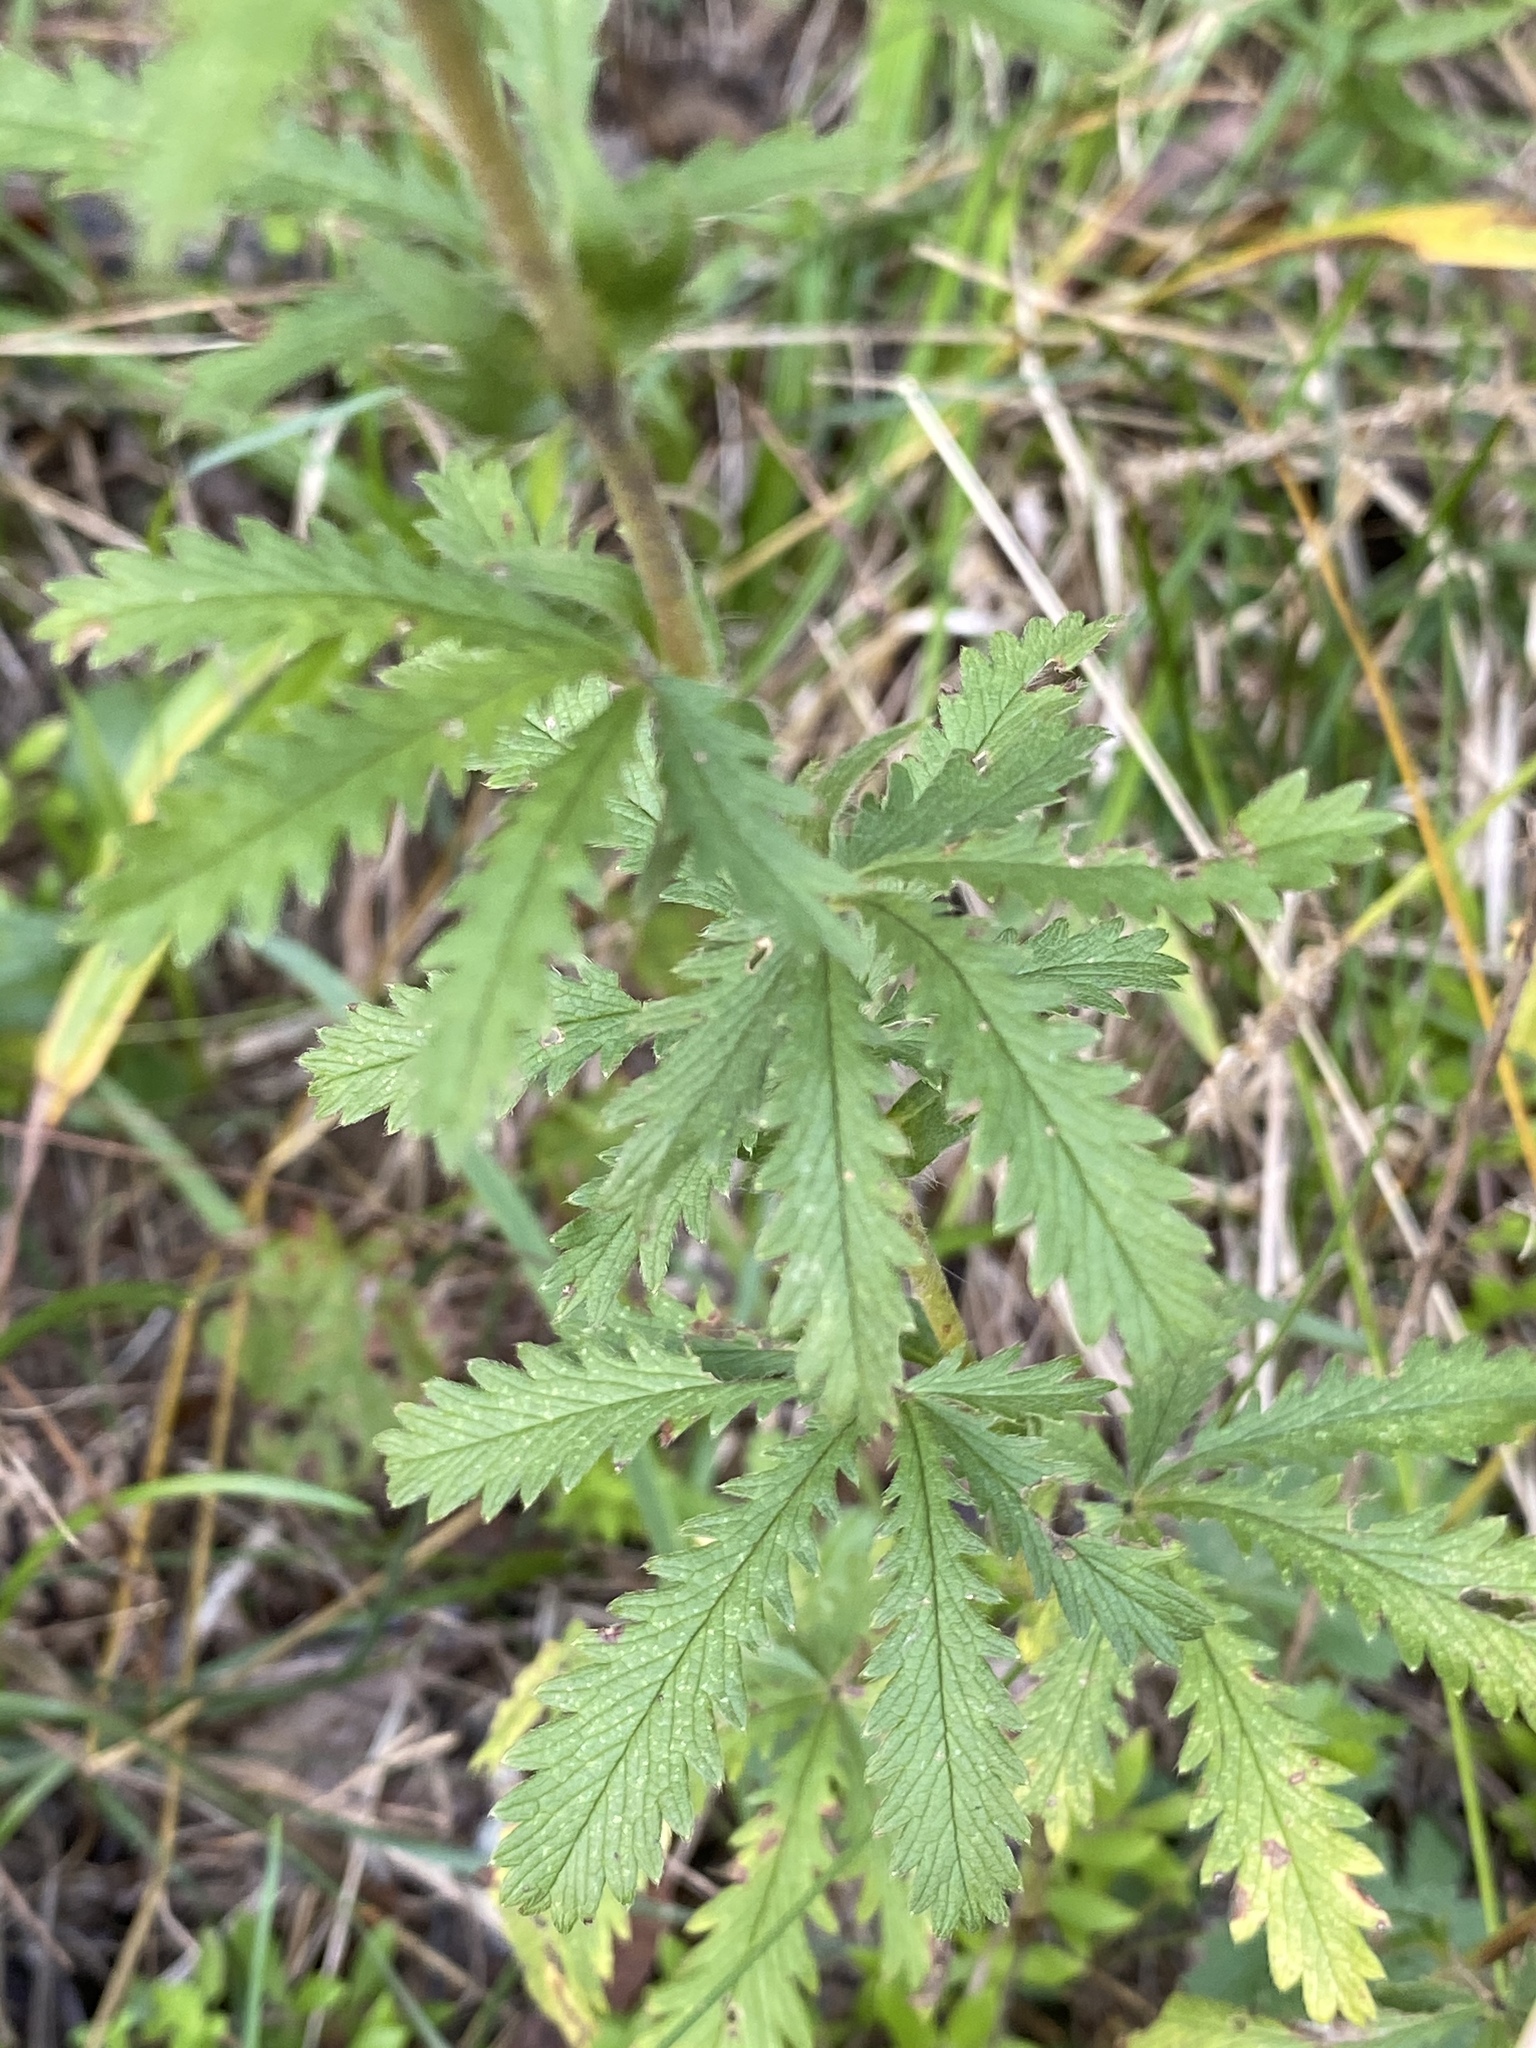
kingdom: Plantae
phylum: Tracheophyta
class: Magnoliopsida
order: Rosales
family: Rosaceae
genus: Potentilla
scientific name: Potentilla recta
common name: Sulphur cinquefoil
